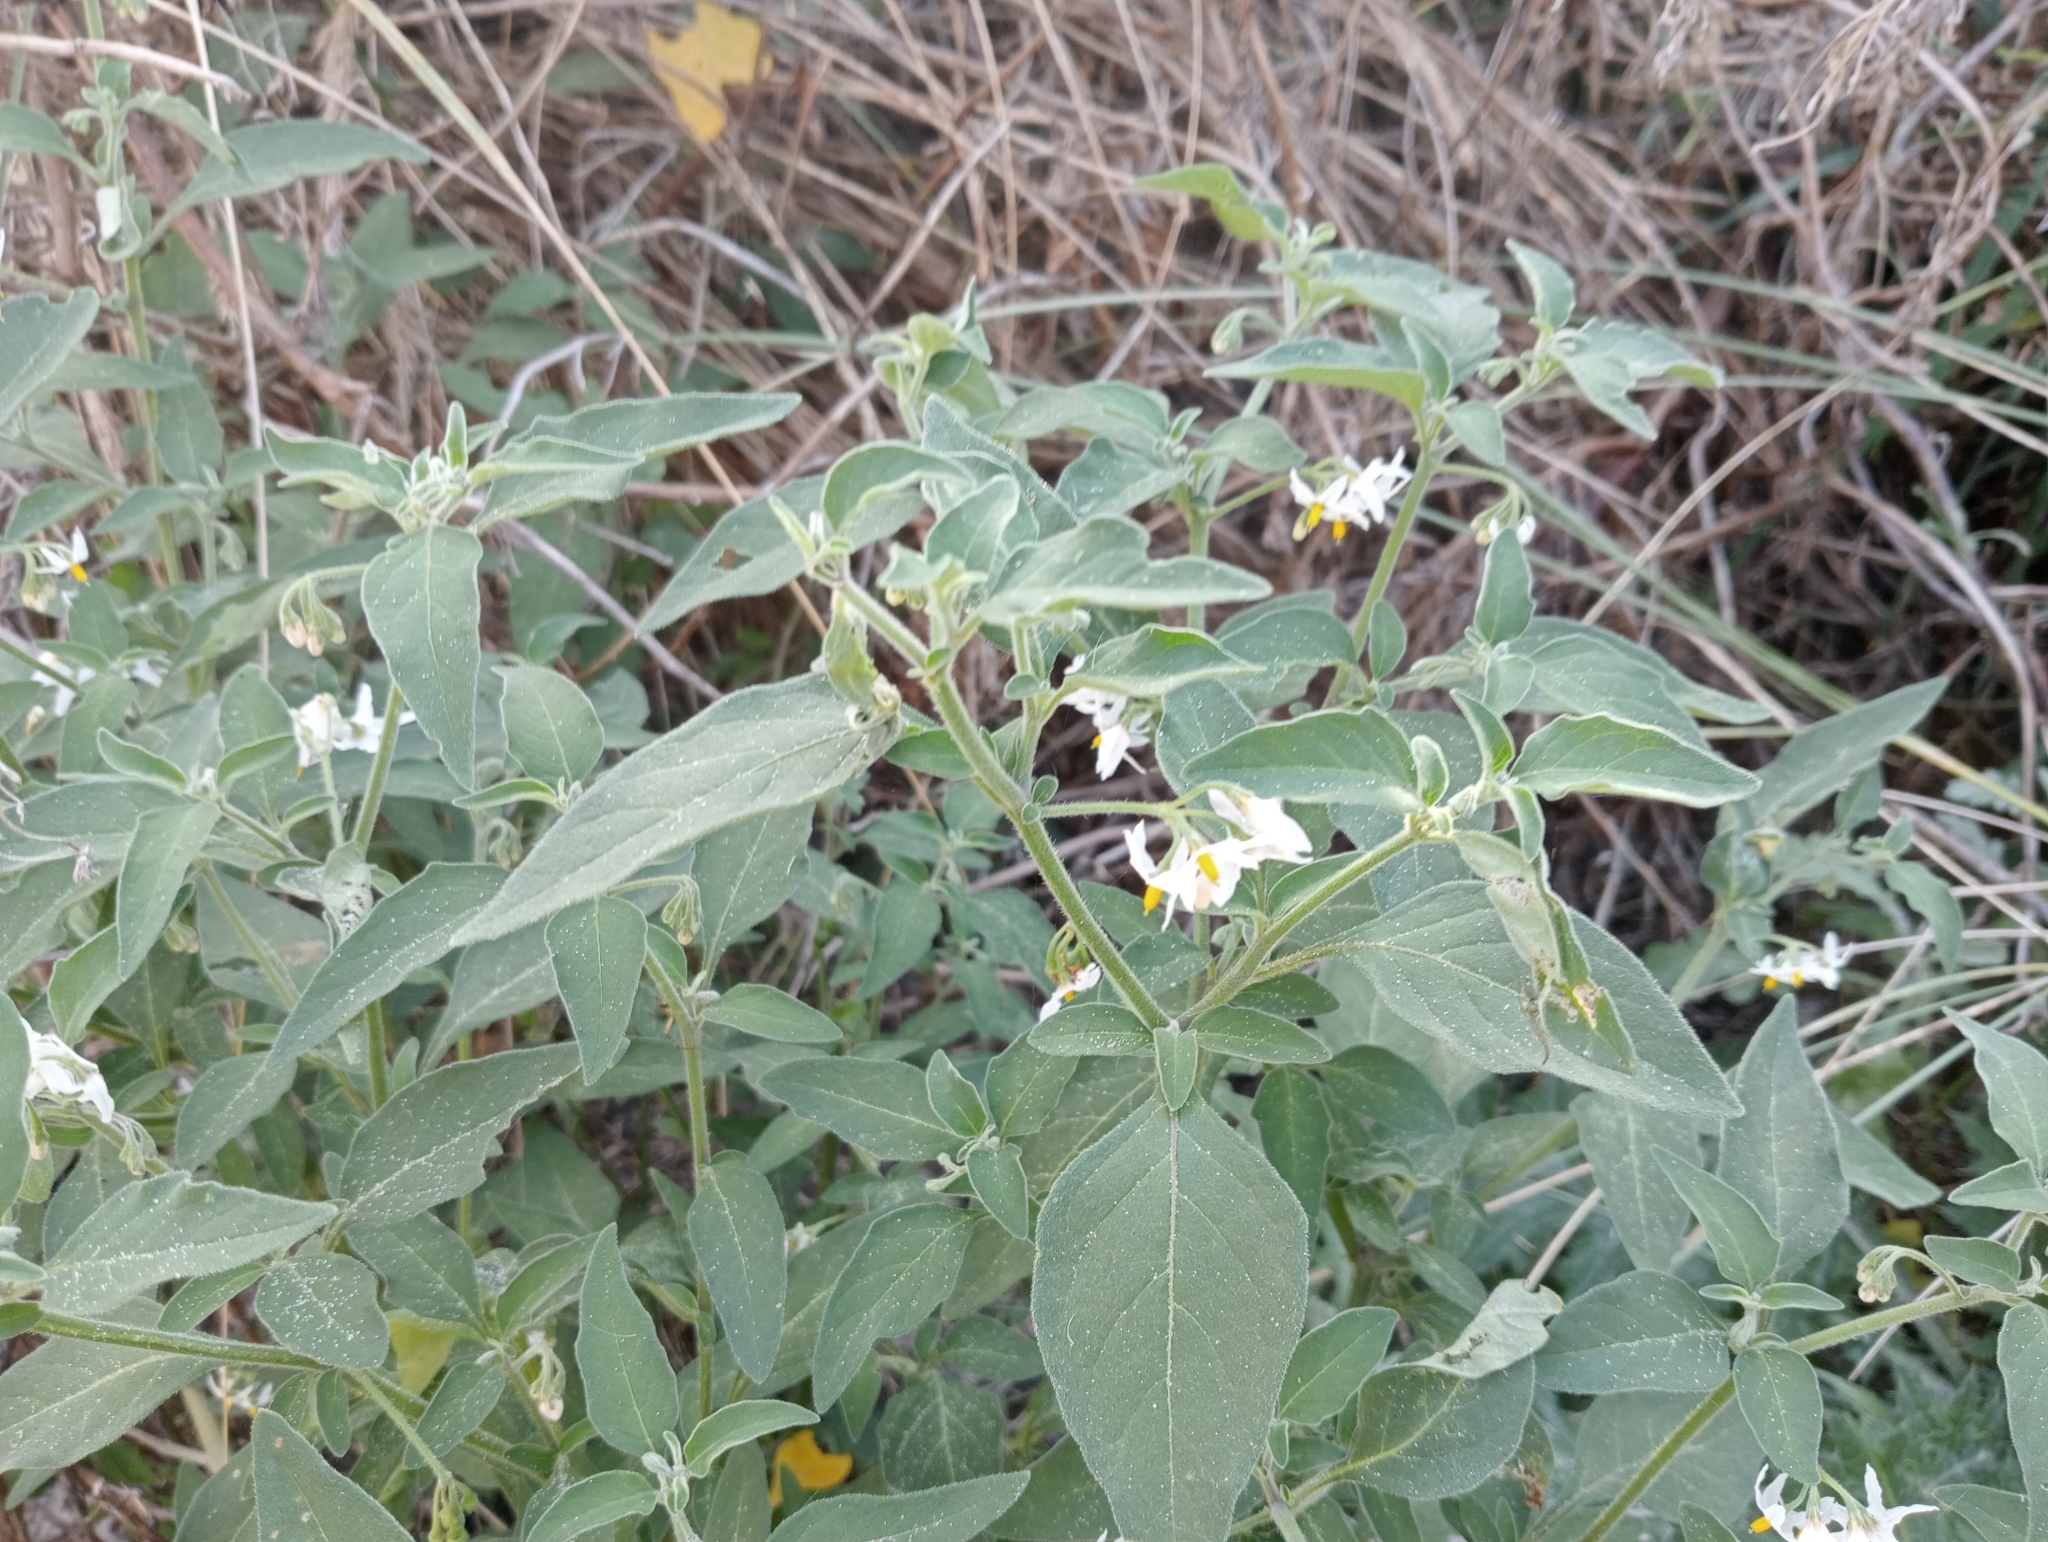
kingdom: Plantae
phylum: Tracheophyta
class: Magnoliopsida
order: Solanales
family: Solanaceae
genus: Solanum
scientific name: Solanum chenopodioides
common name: Tall nightshade
